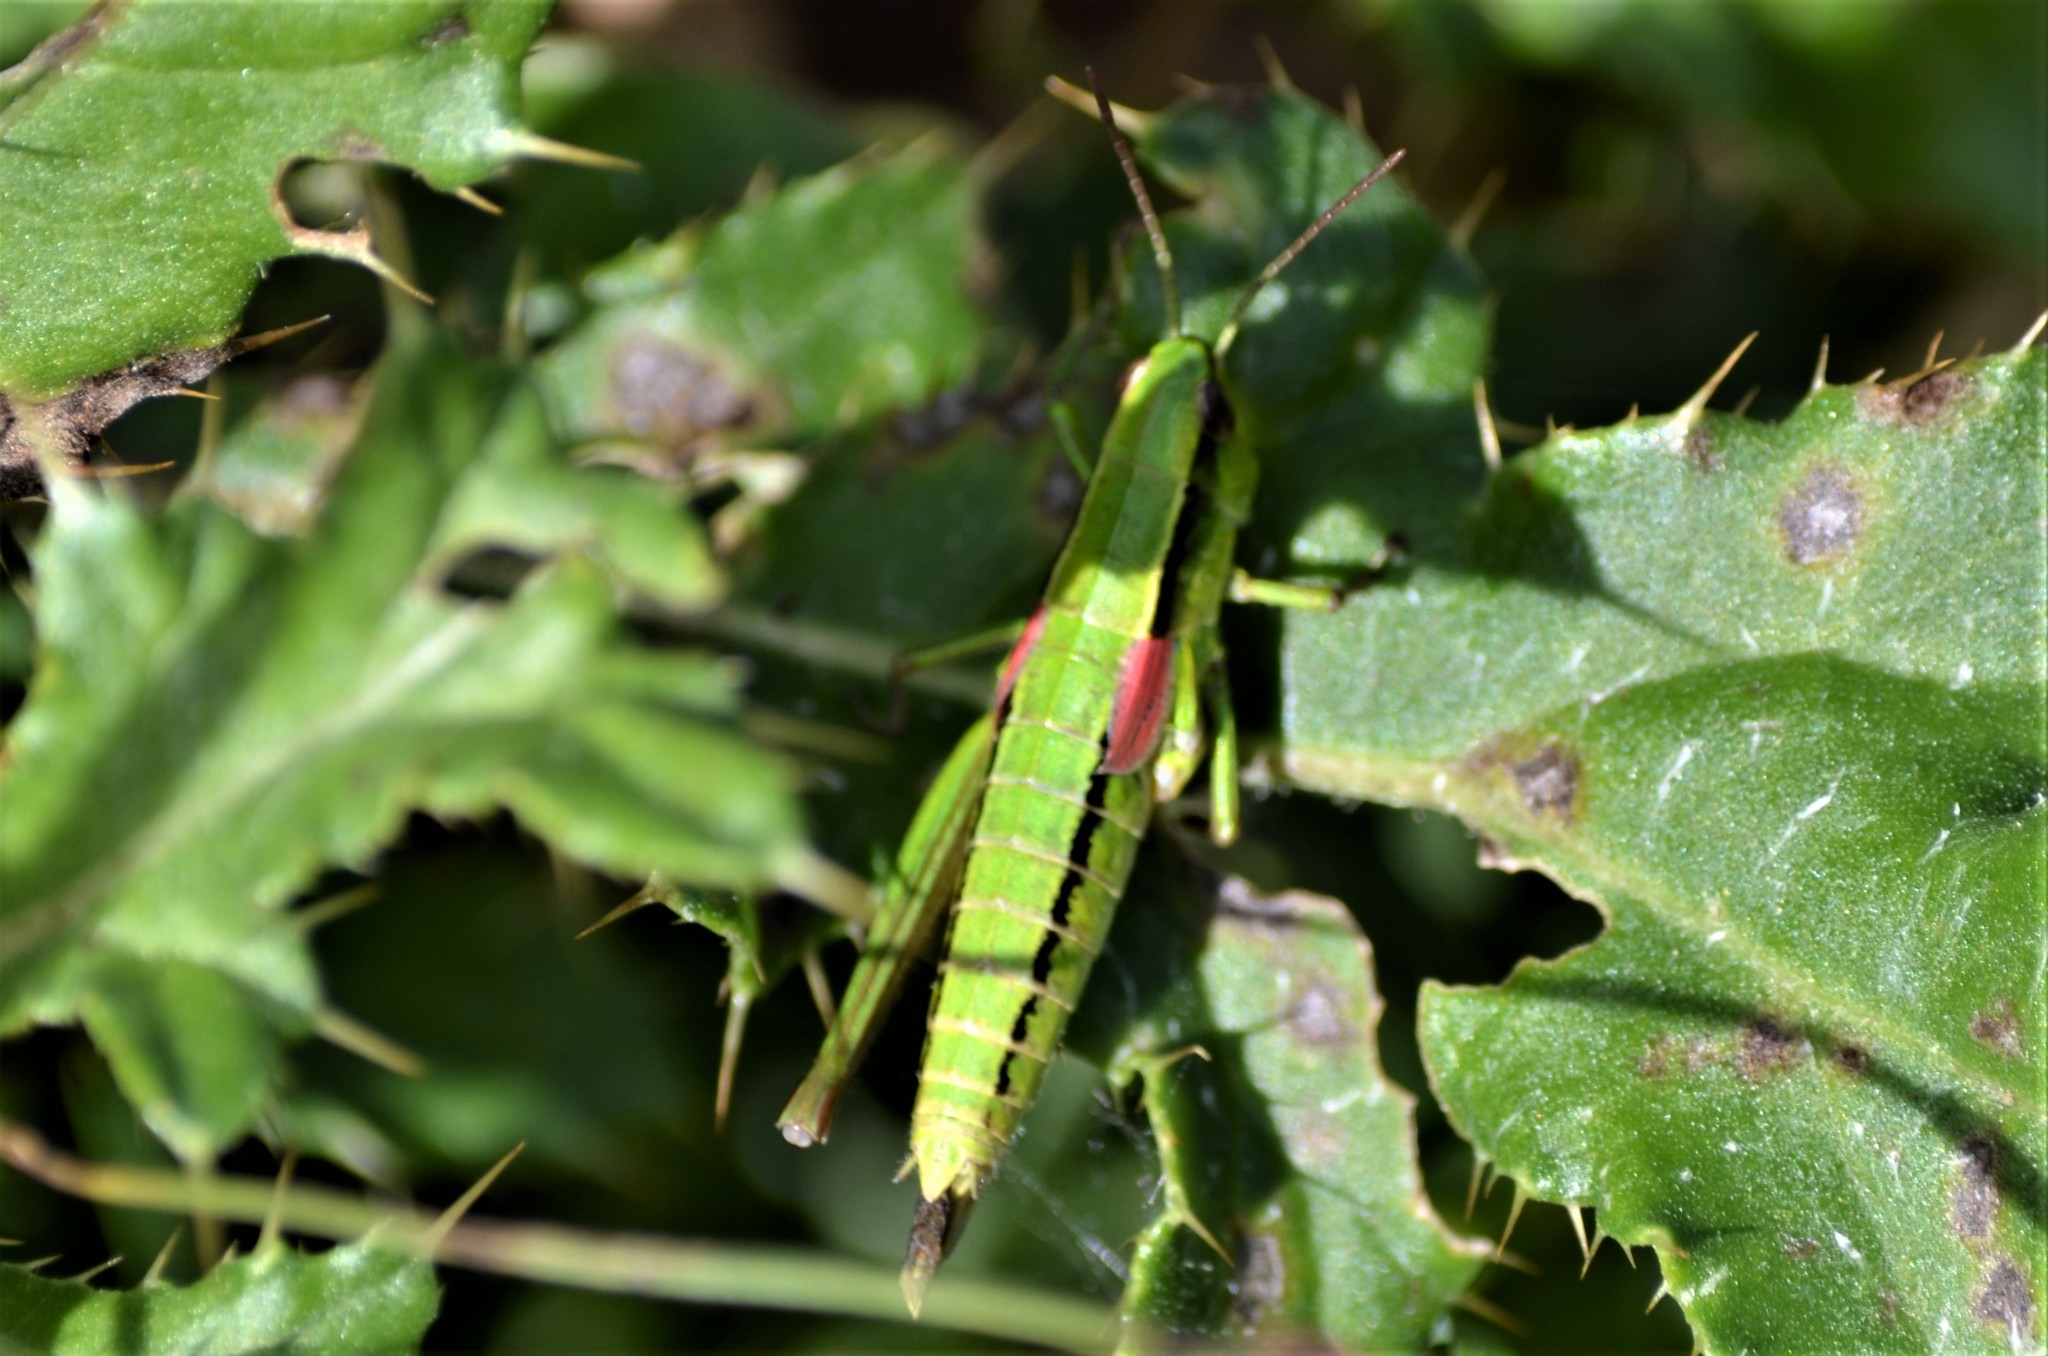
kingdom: Animalia
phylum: Arthropoda
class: Insecta
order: Orthoptera
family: Acrididae
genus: Euthystira
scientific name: Euthystira brachyptera
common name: Small gold grasshopper
